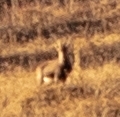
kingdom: Animalia
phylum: Chordata
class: Mammalia
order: Artiodactyla
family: Bovidae
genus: Capra
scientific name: Capra ibex
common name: Alpine ibex
